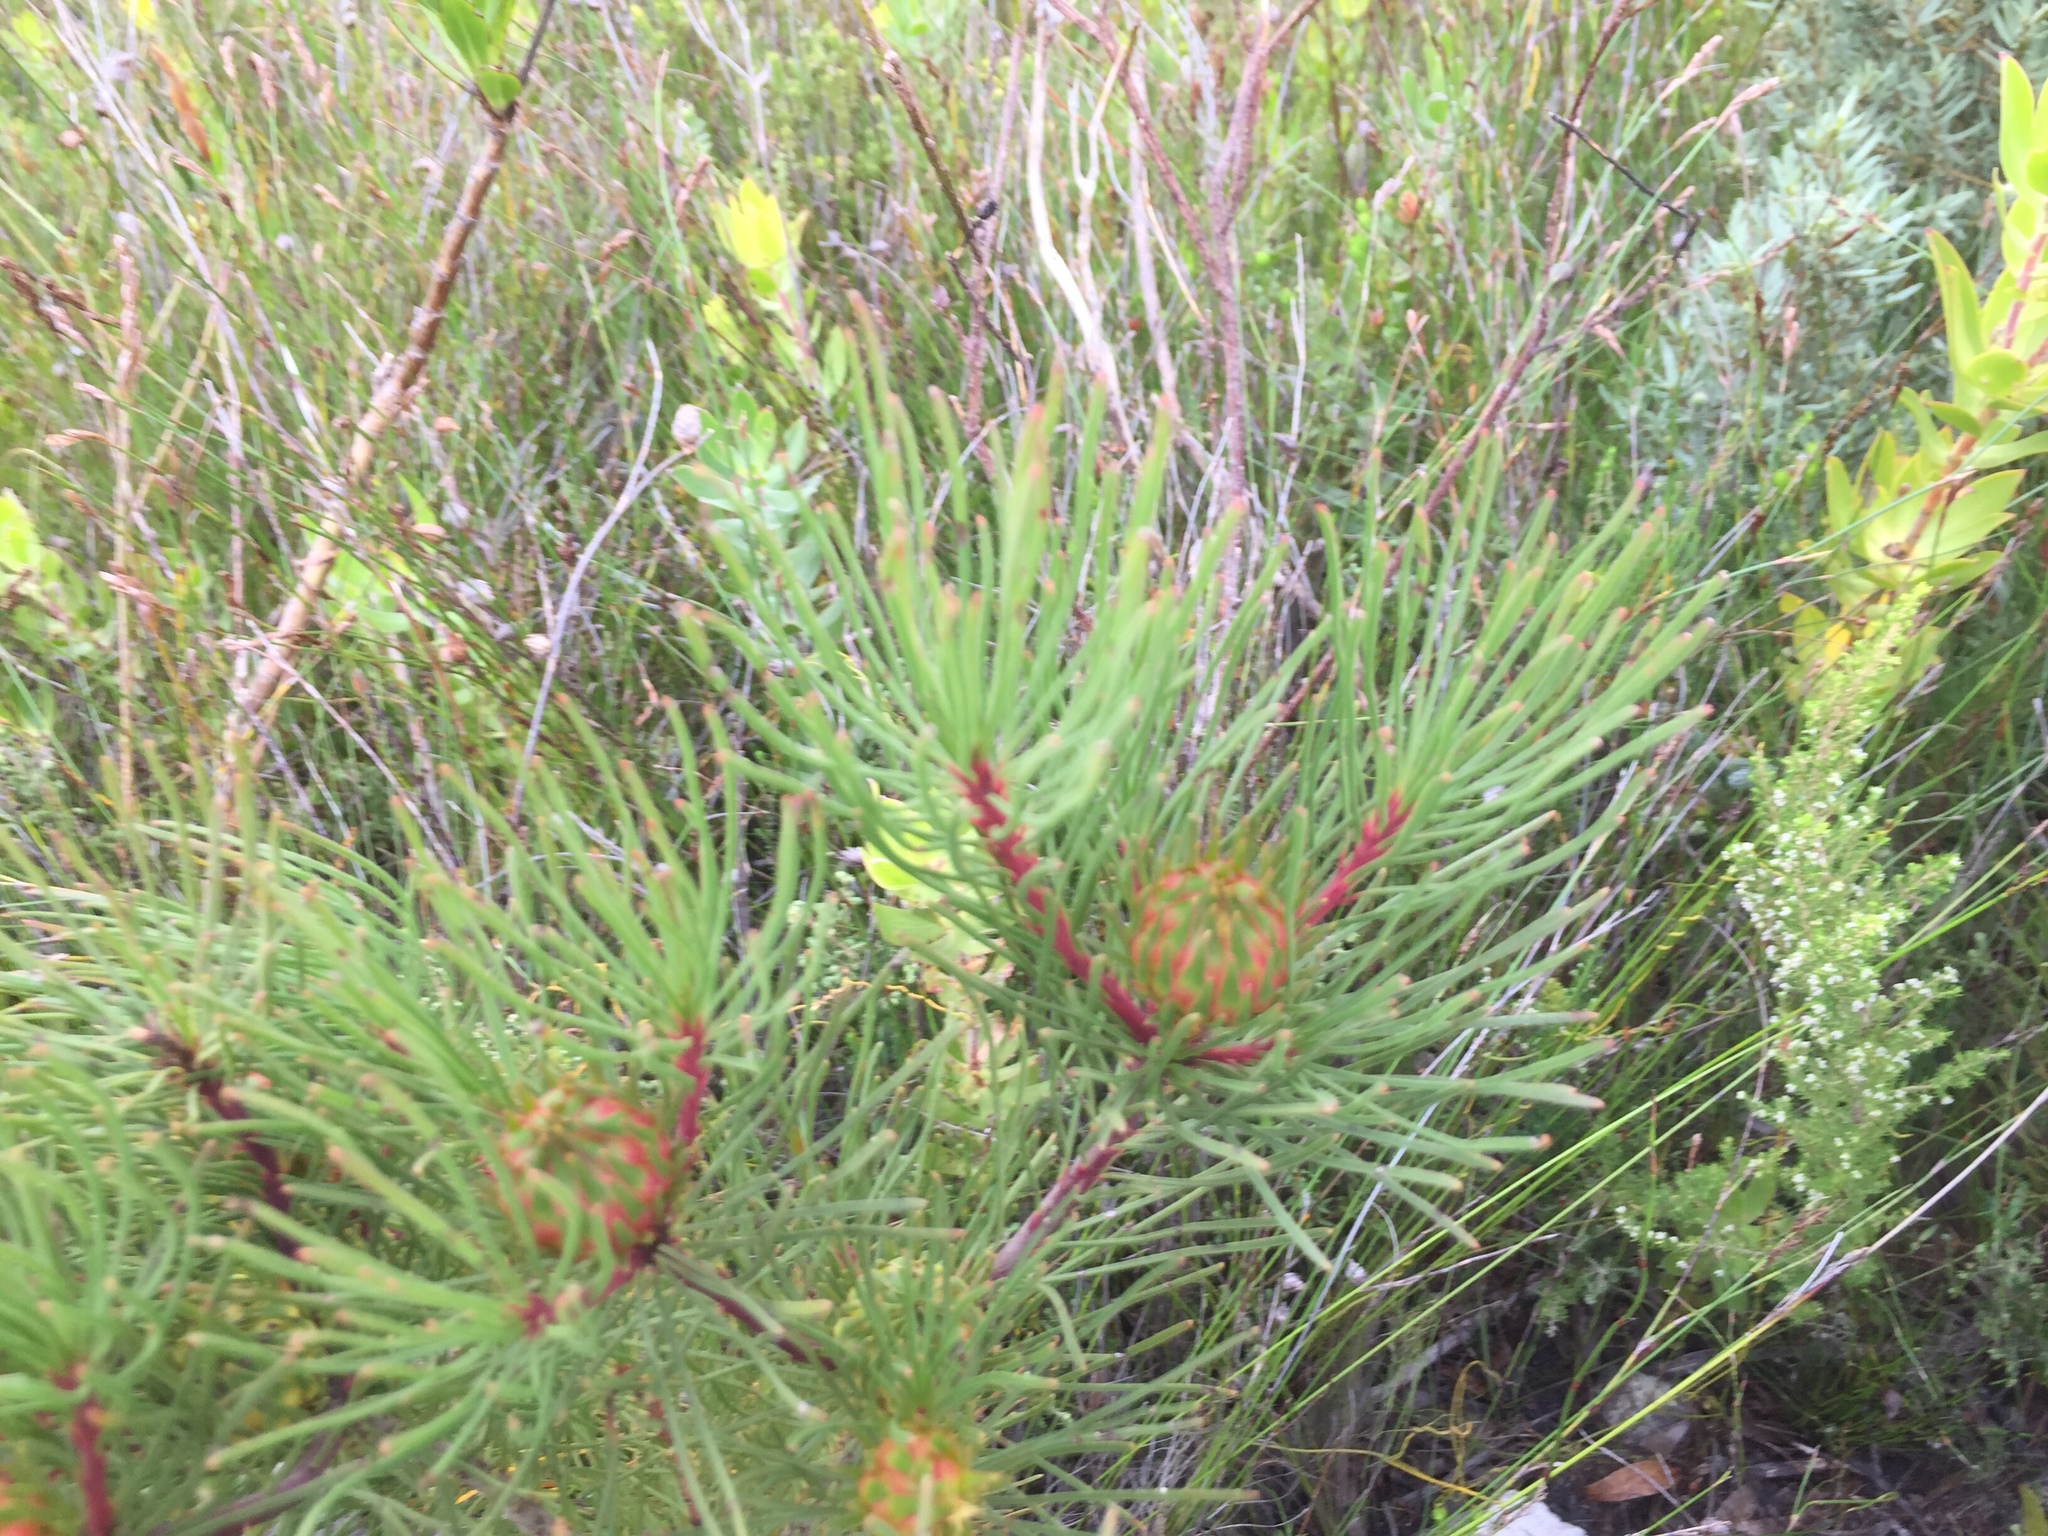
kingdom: Plantae
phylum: Tracheophyta
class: Magnoliopsida
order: Proteales
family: Proteaceae
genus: Aulax
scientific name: Aulax cancellata
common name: Channel-leaf featherbush
